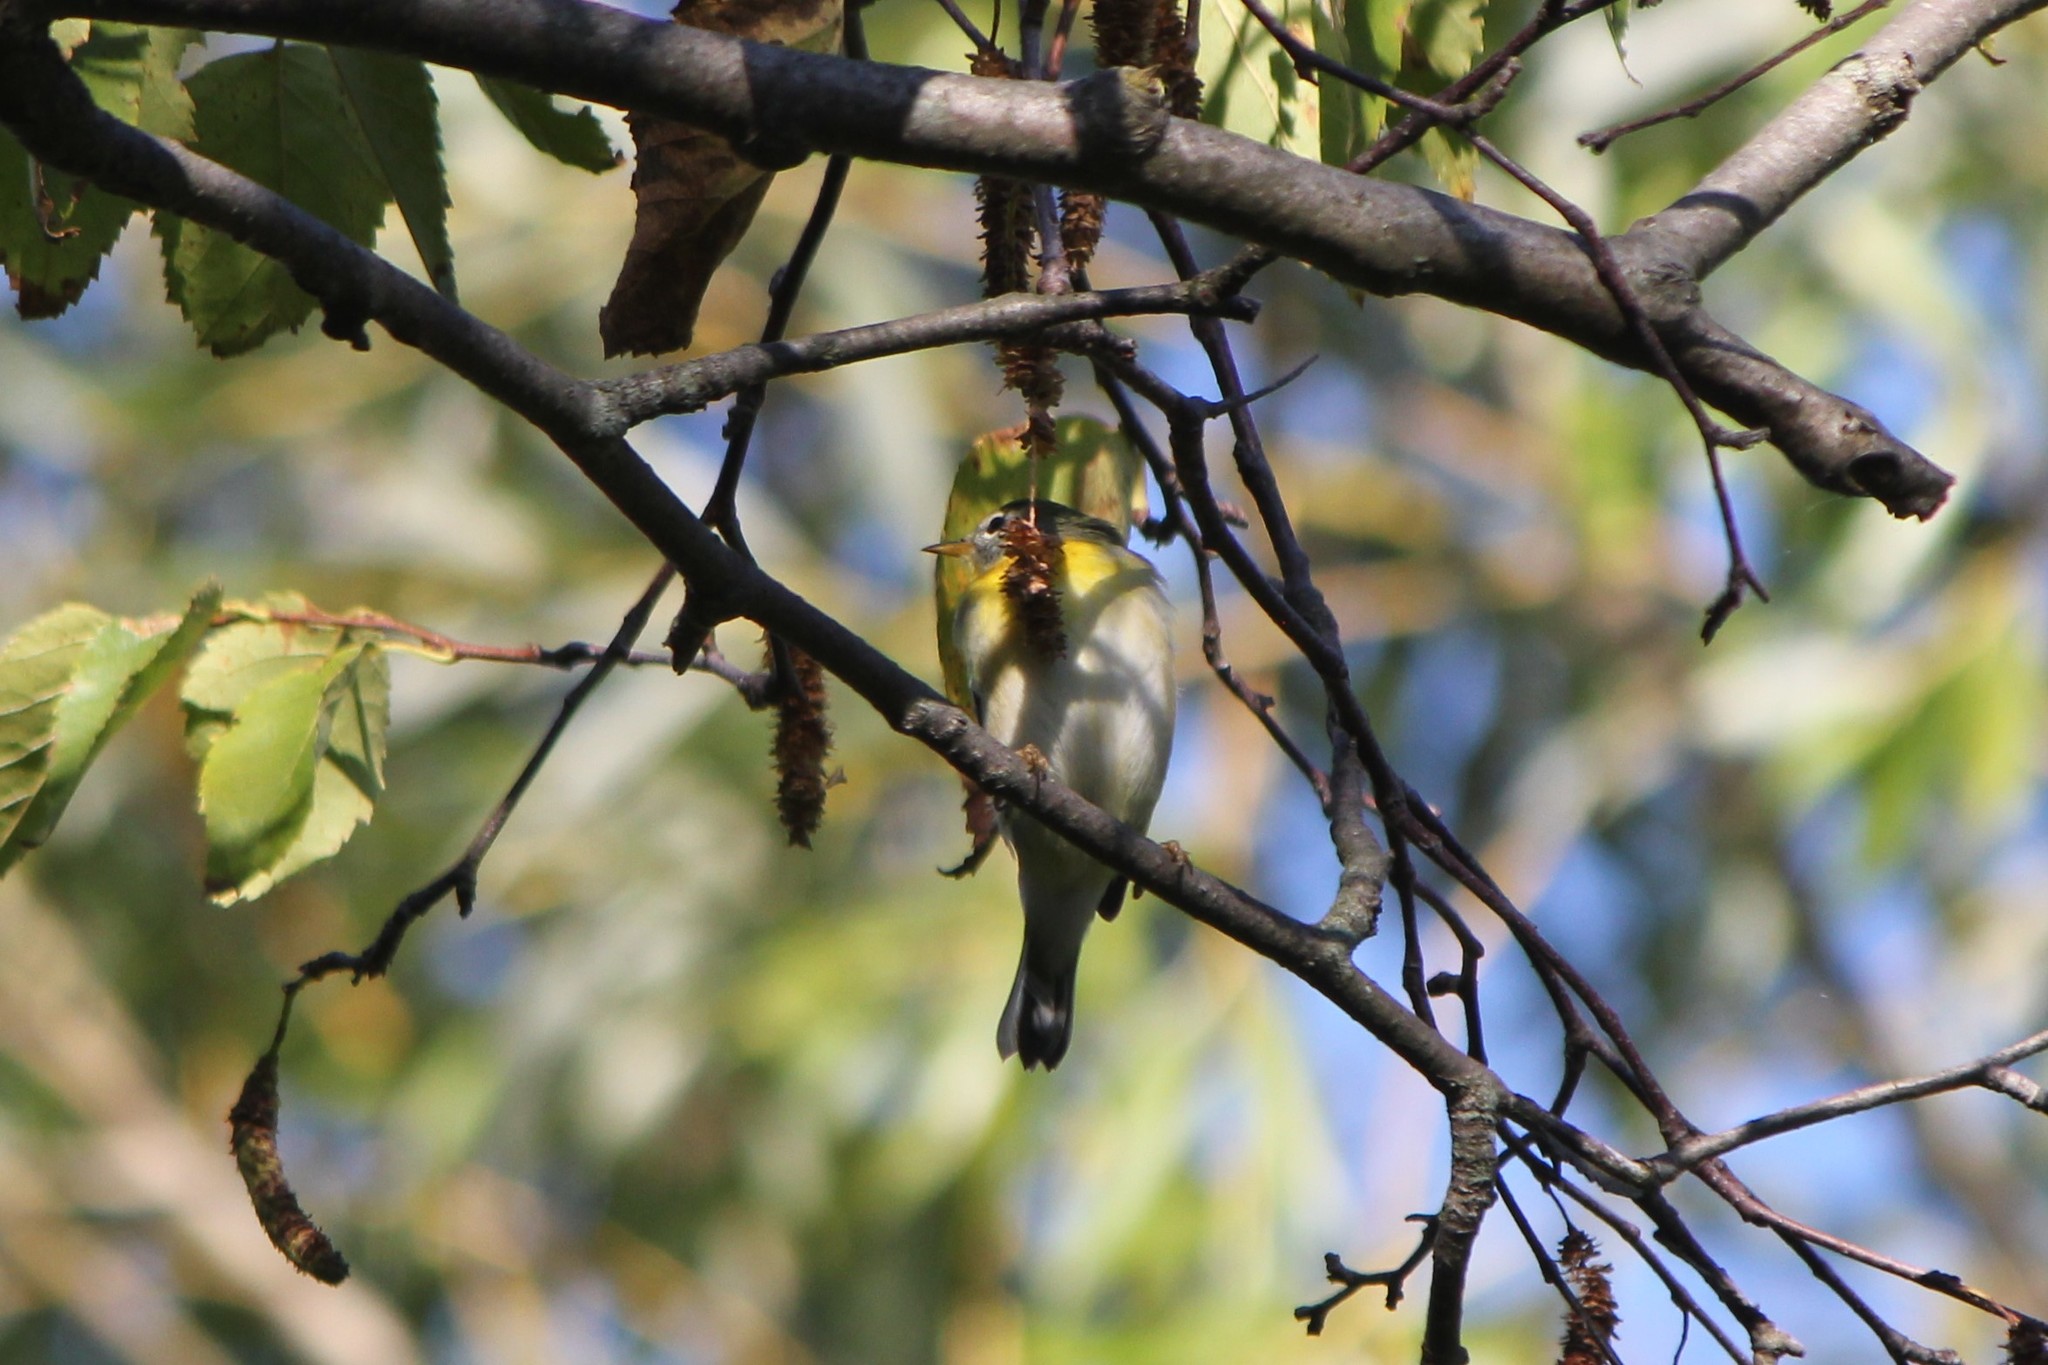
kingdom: Animalia
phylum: Chordata
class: Aves
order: Passeriformes
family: Parulidae
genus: Setophaga
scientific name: Setophaga americana
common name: Northern parula
